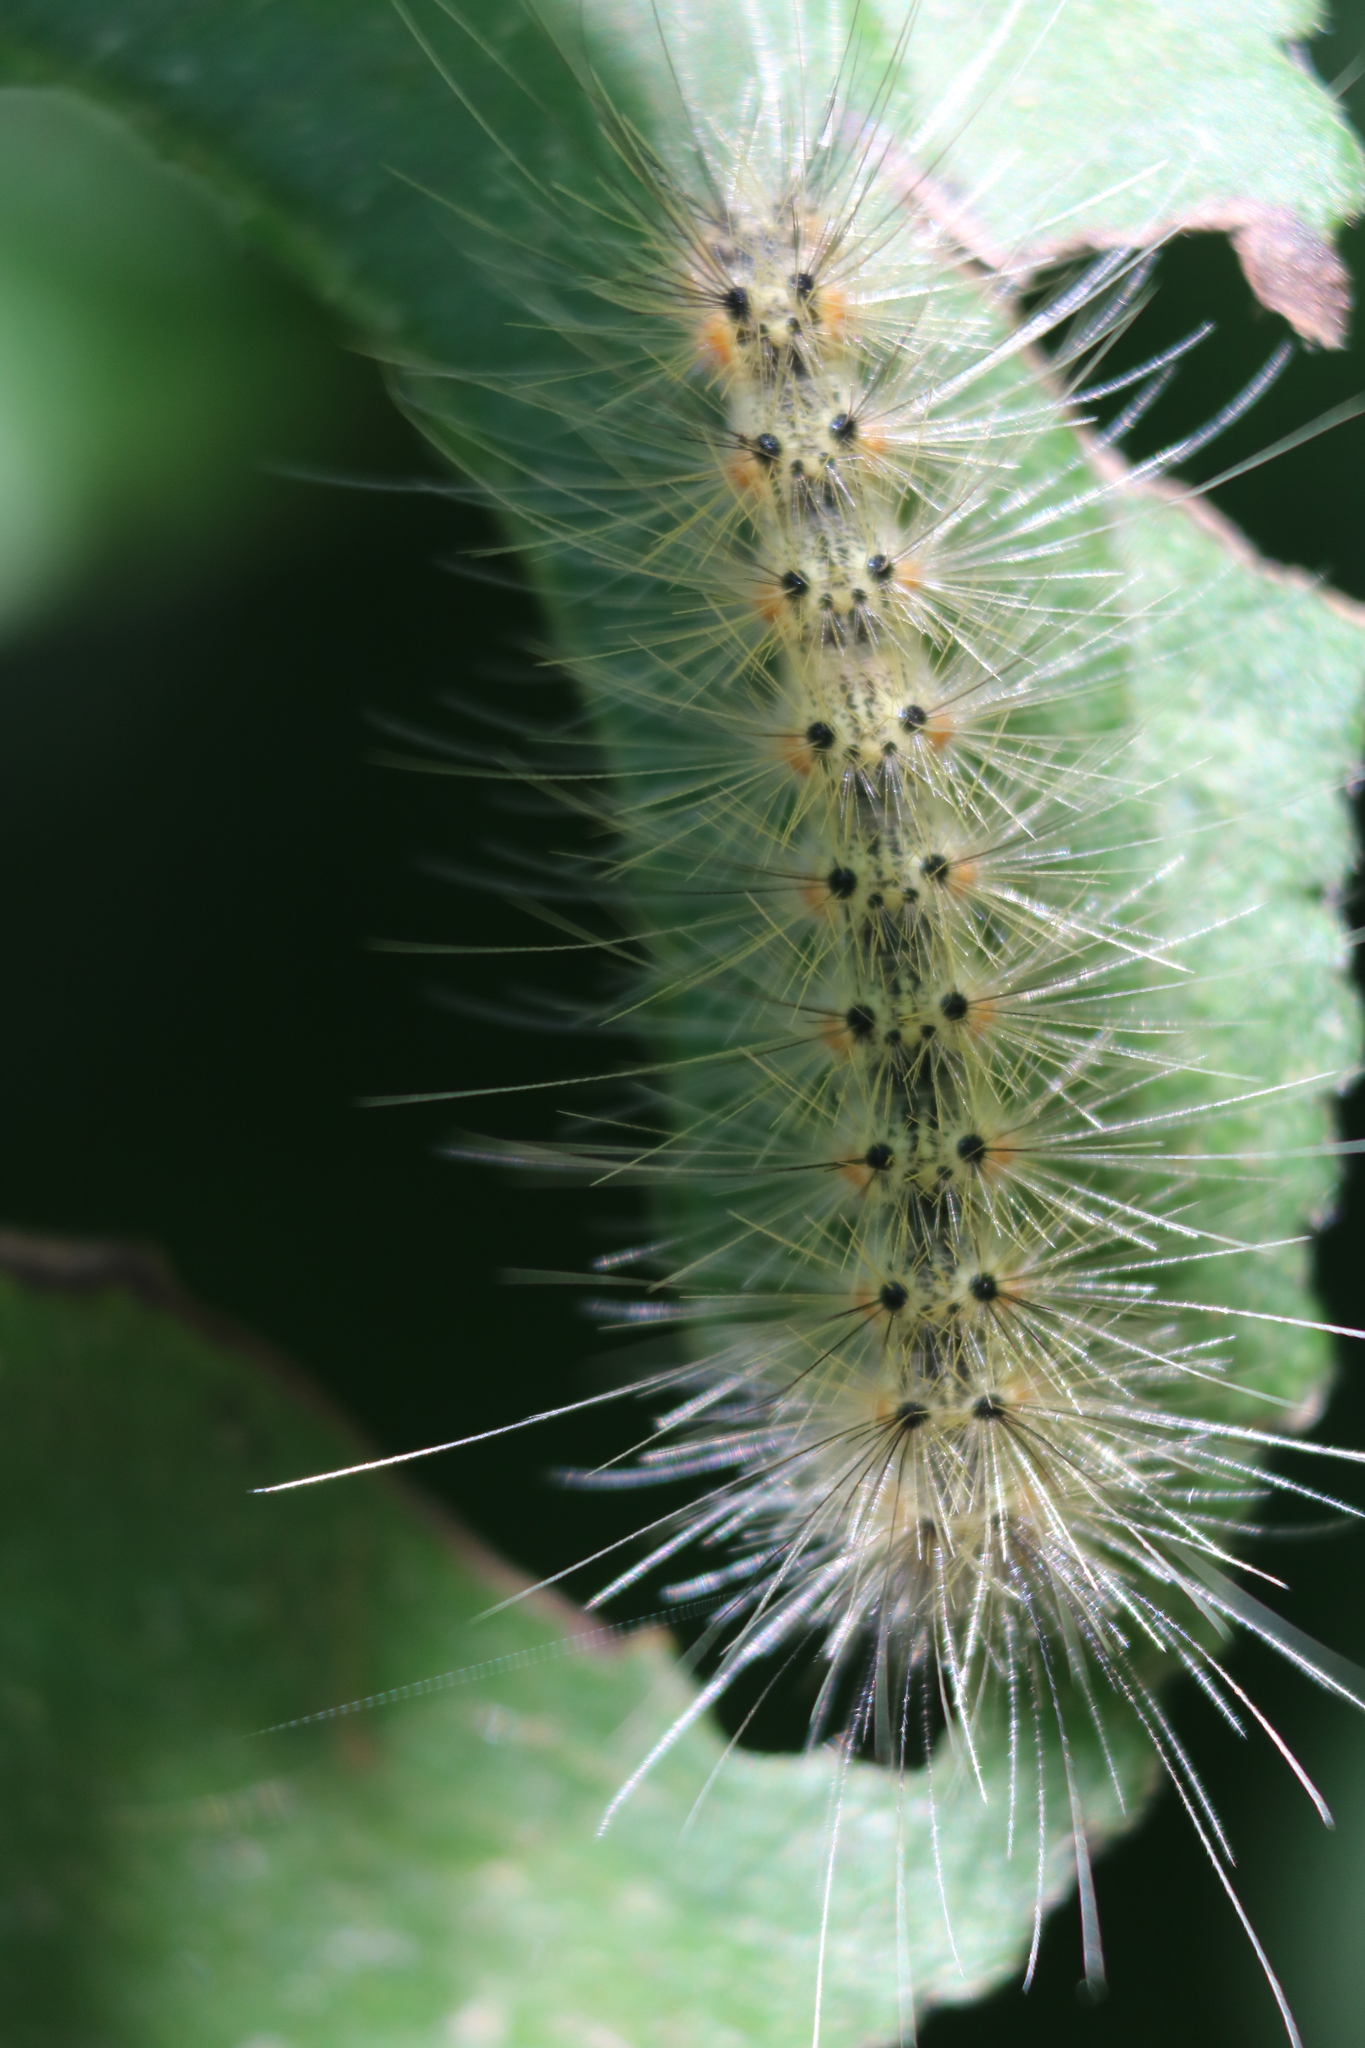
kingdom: Animalia
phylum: Arthropoda
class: Insecta
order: Lepidoptera
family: Erebidae
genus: Hyphantria
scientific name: Hyphantria cunea
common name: American white moth
